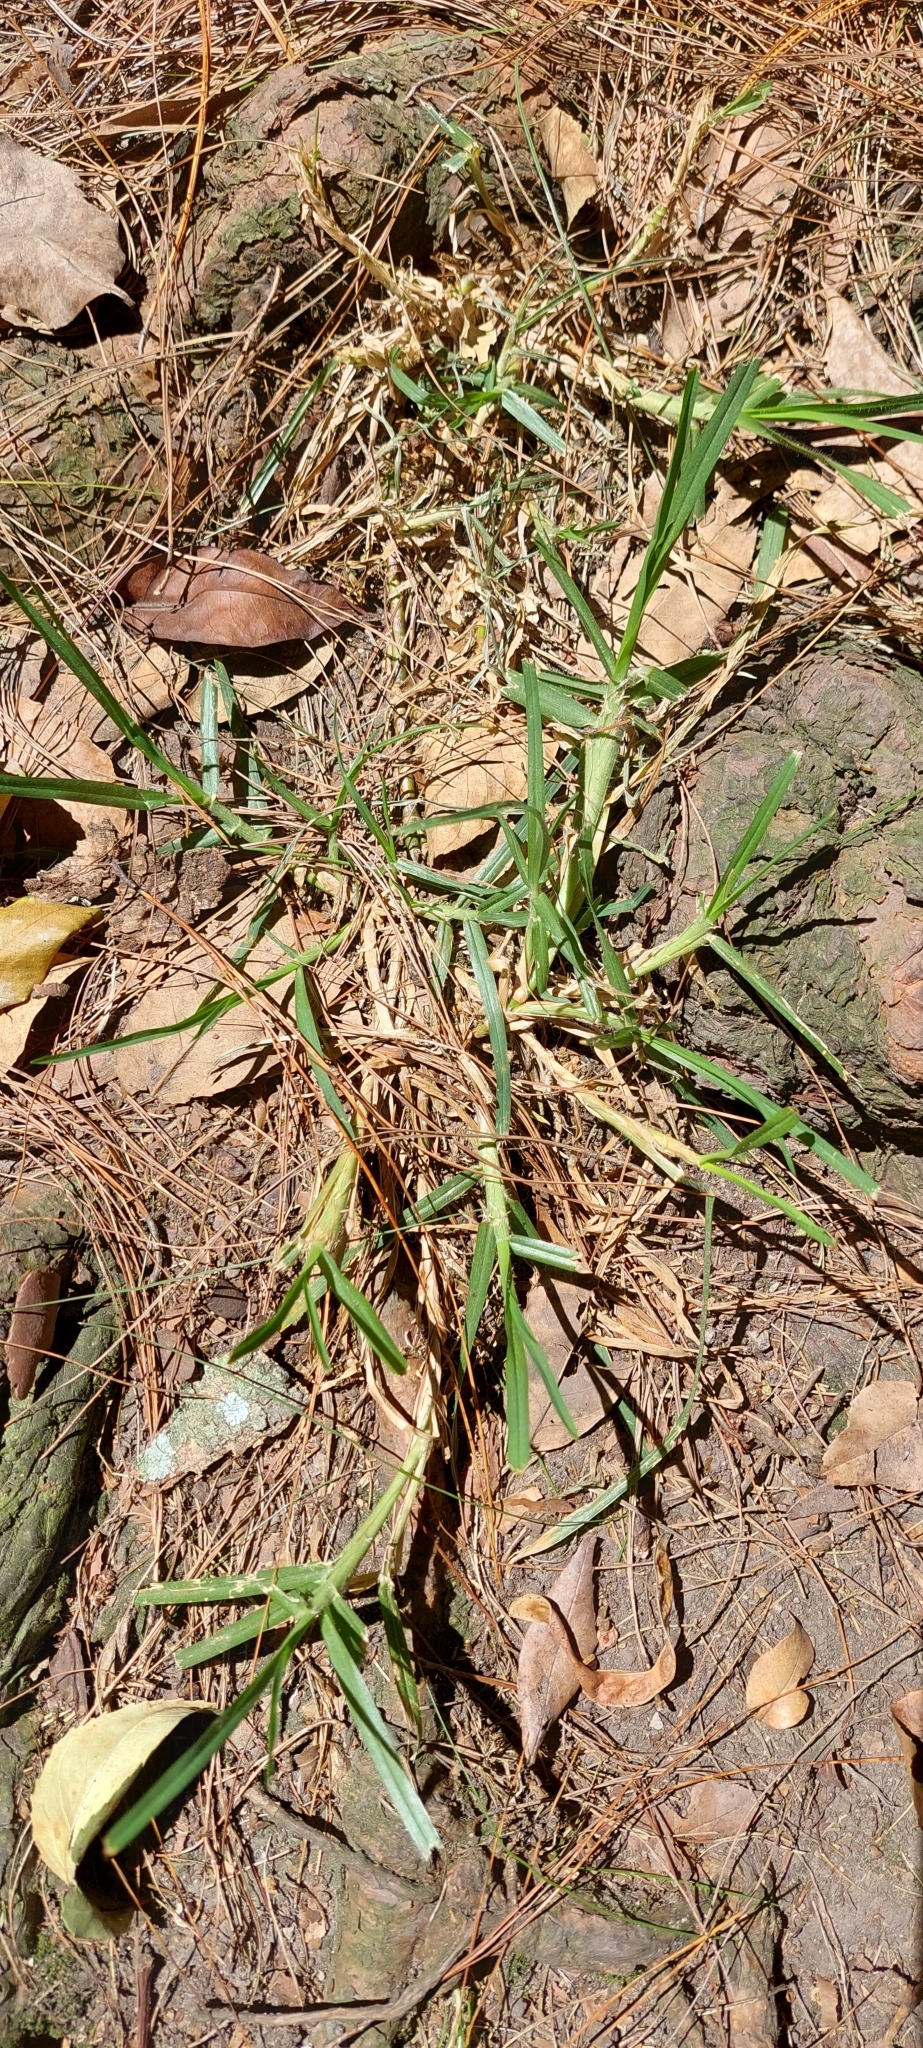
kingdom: Plantae
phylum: Tracheophyta
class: Liliopsida
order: Poales
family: Poaceae
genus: Cenchrus
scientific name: Cenchrus clandestinus
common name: Kikuyugrass
